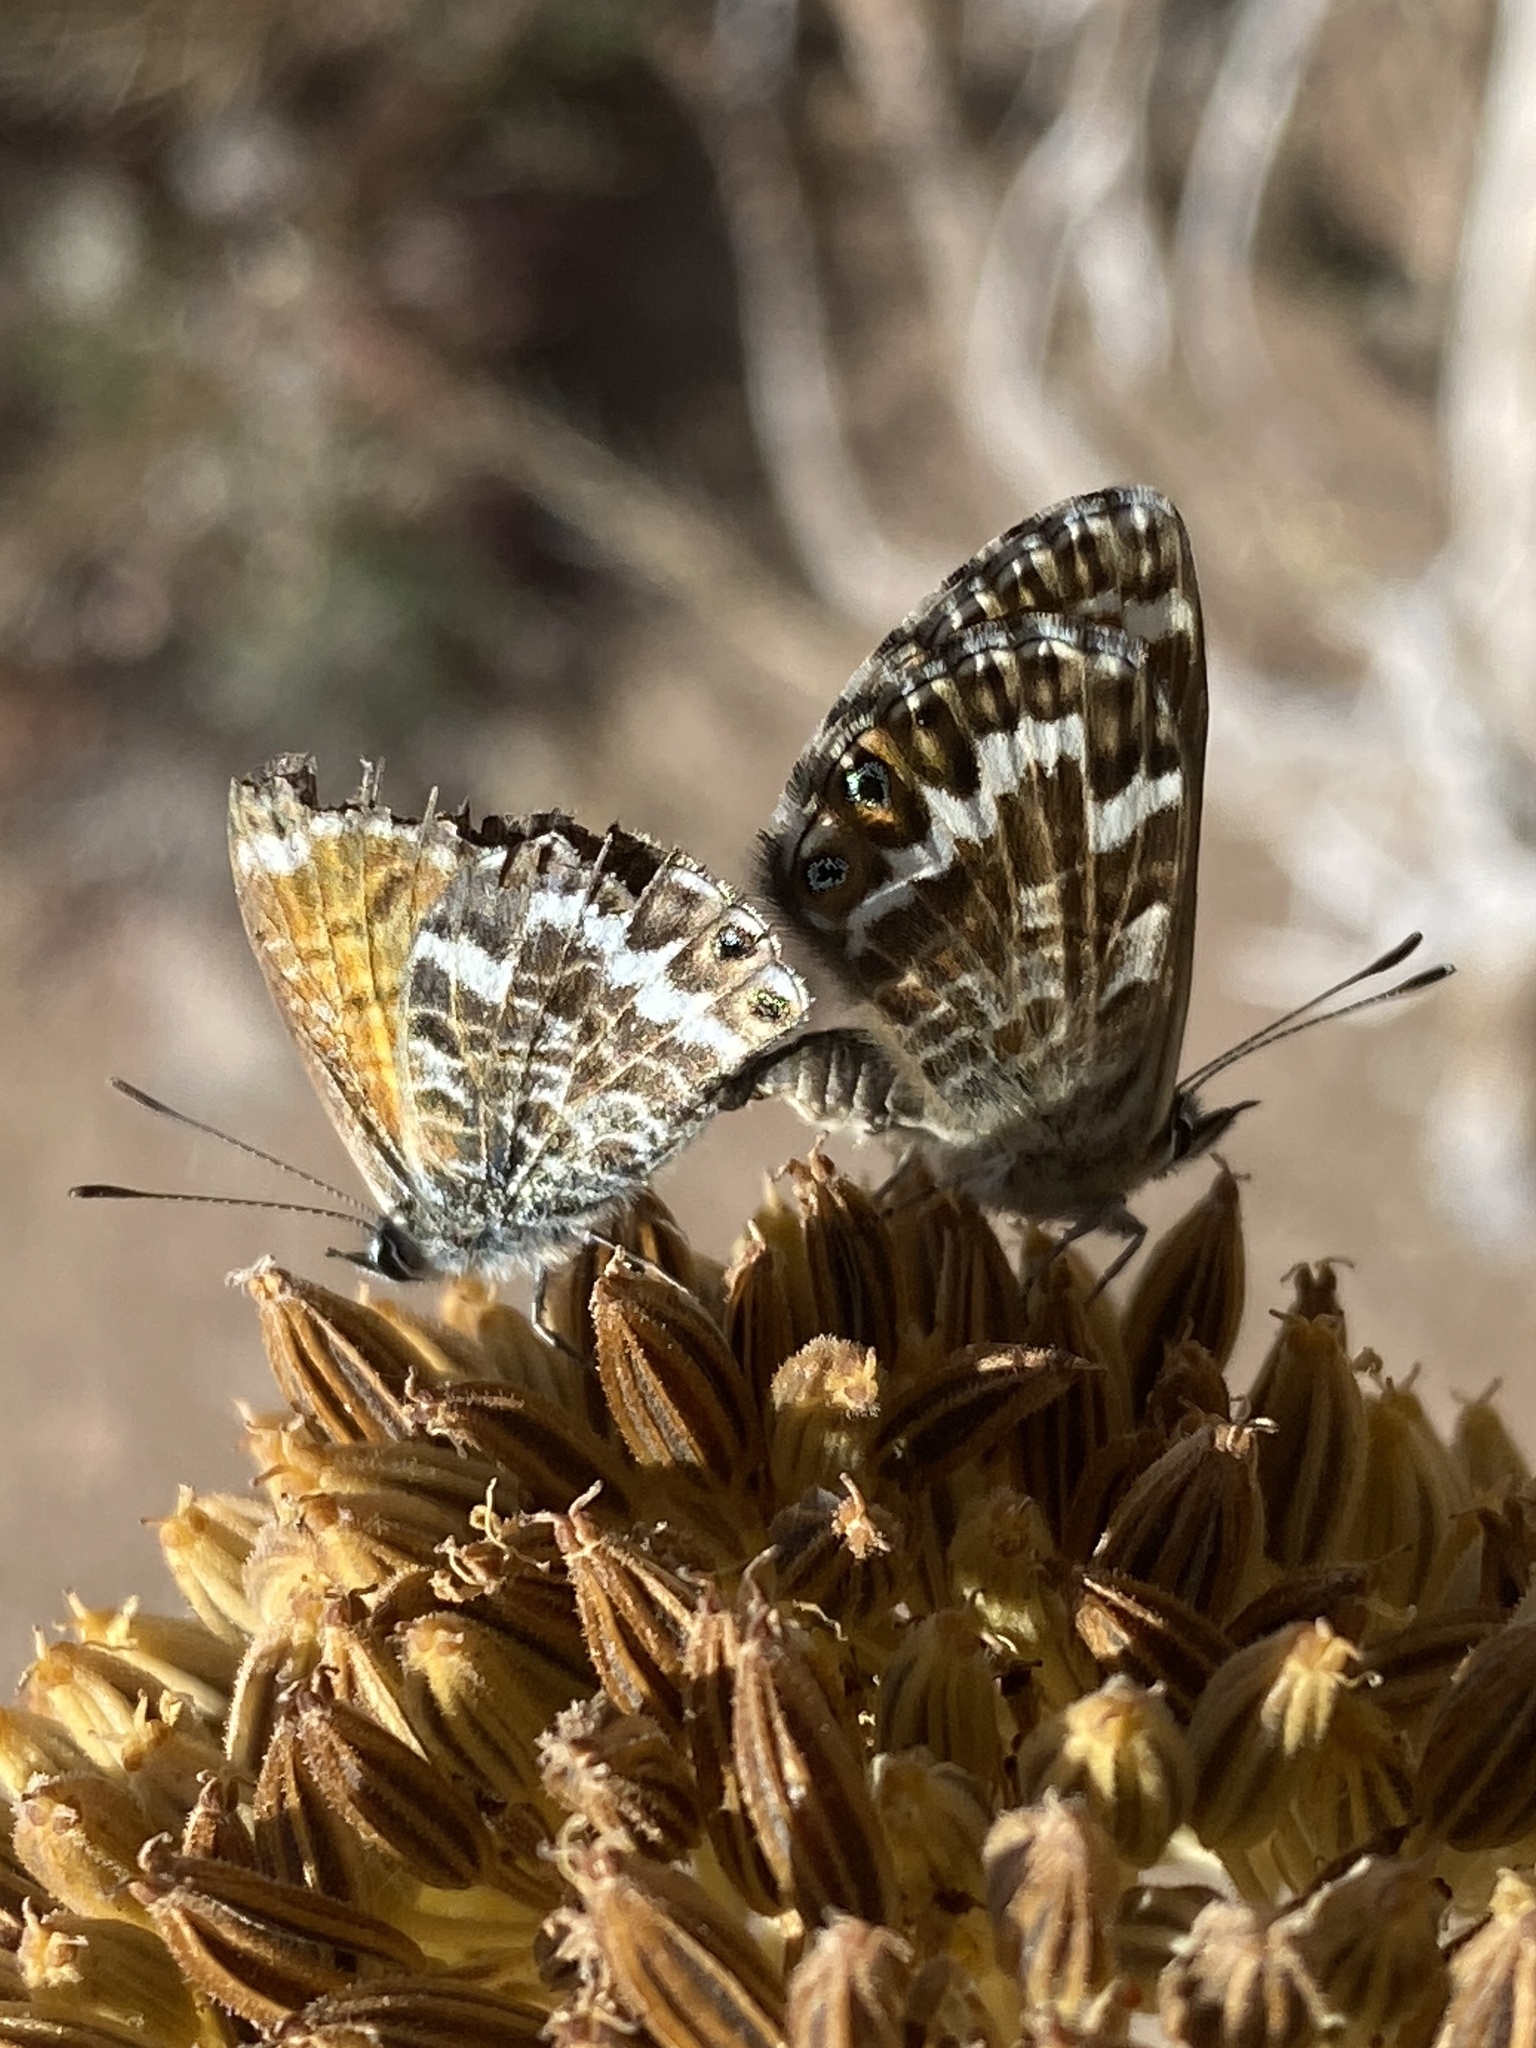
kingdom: Animalia
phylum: Arthropoda
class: Insecta
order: Lepidoptera
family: Lycaenidae
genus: Cyclyrius
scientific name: Cyclyrius webbianus
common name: Canary blue
